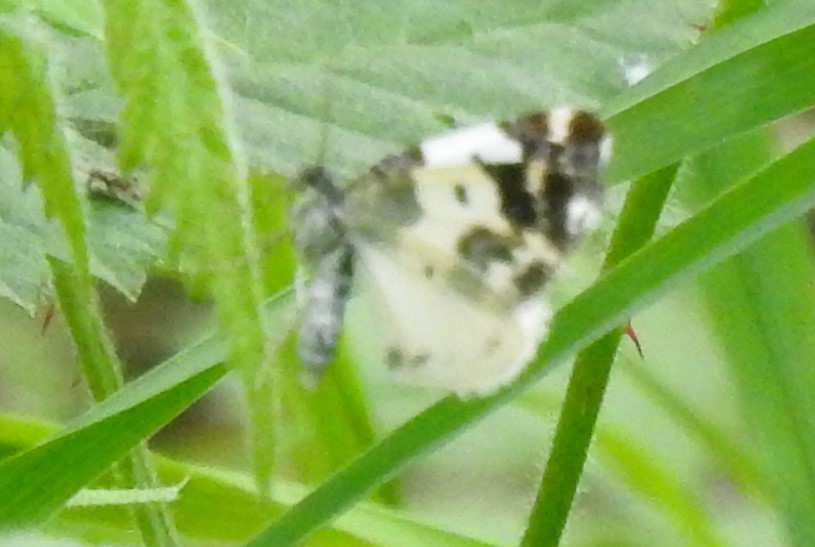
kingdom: Animalia
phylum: Arthropoda
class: Insecta
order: Lepidoptera
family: Geometridae
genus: Mesoleuca
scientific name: Mesoleuca gratulata
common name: Half-white carpet moth
